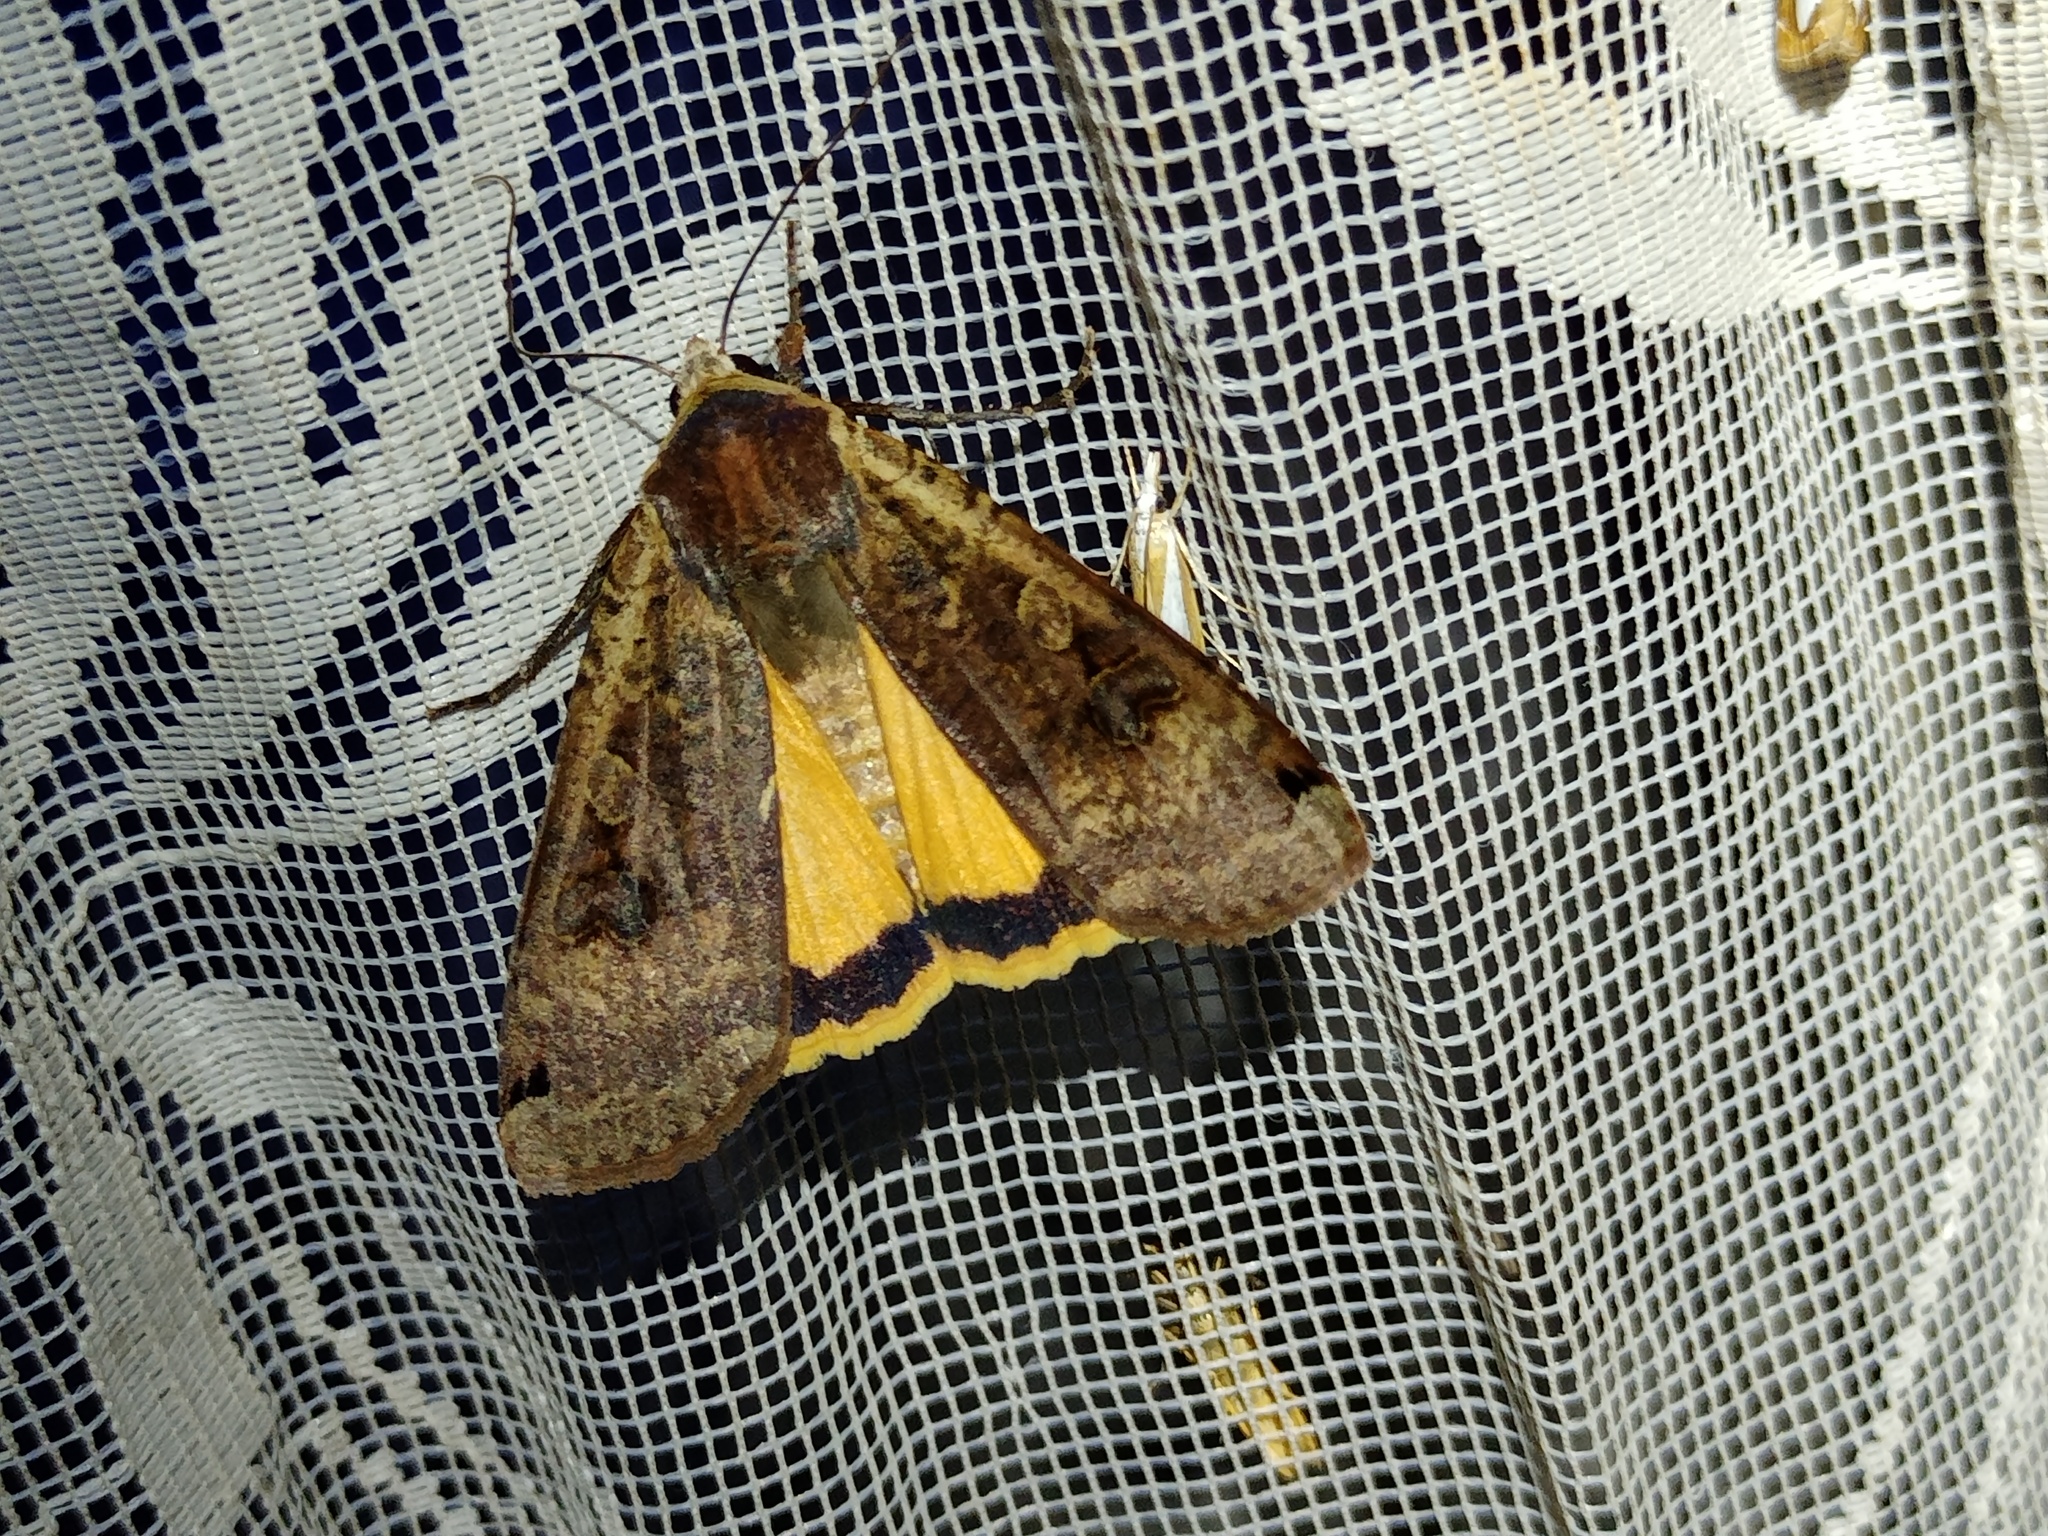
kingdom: Animalia
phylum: Arthropoda
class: Insecta
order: Lepidoptera
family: Noctuidae
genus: Noctua
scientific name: Noctua pronuba
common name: Large yellow underwing
